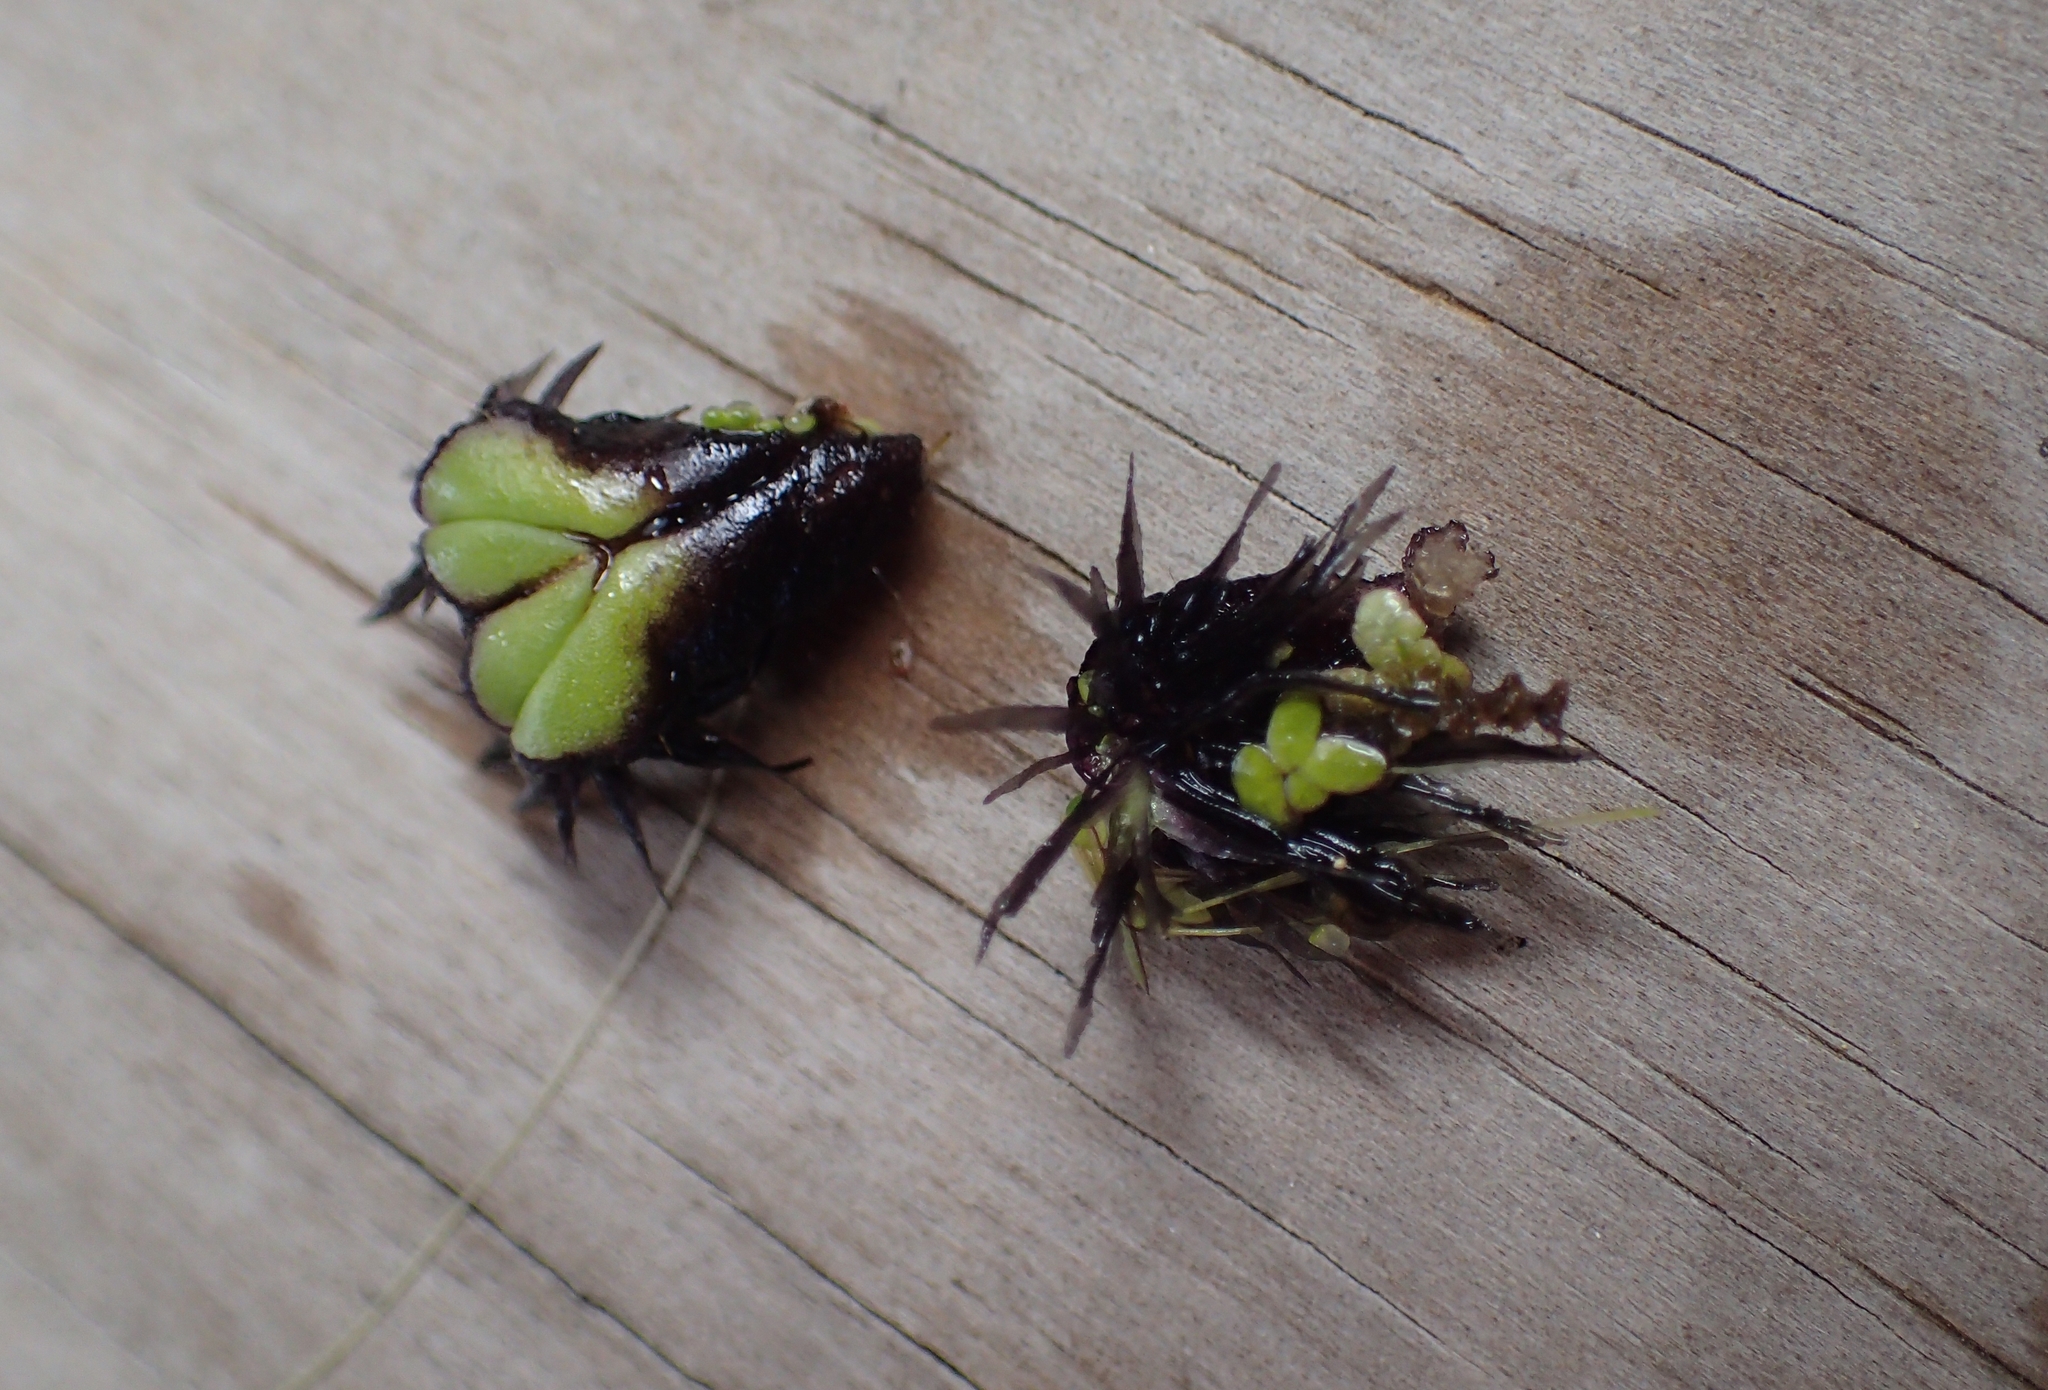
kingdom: Plantae
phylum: Marchantiophyta
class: Marchantiopsida
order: Marchantiales
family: Ricciaceae
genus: Ricciocarpos
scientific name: Ricciocarpos natans
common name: Purple-fringed liverwort
